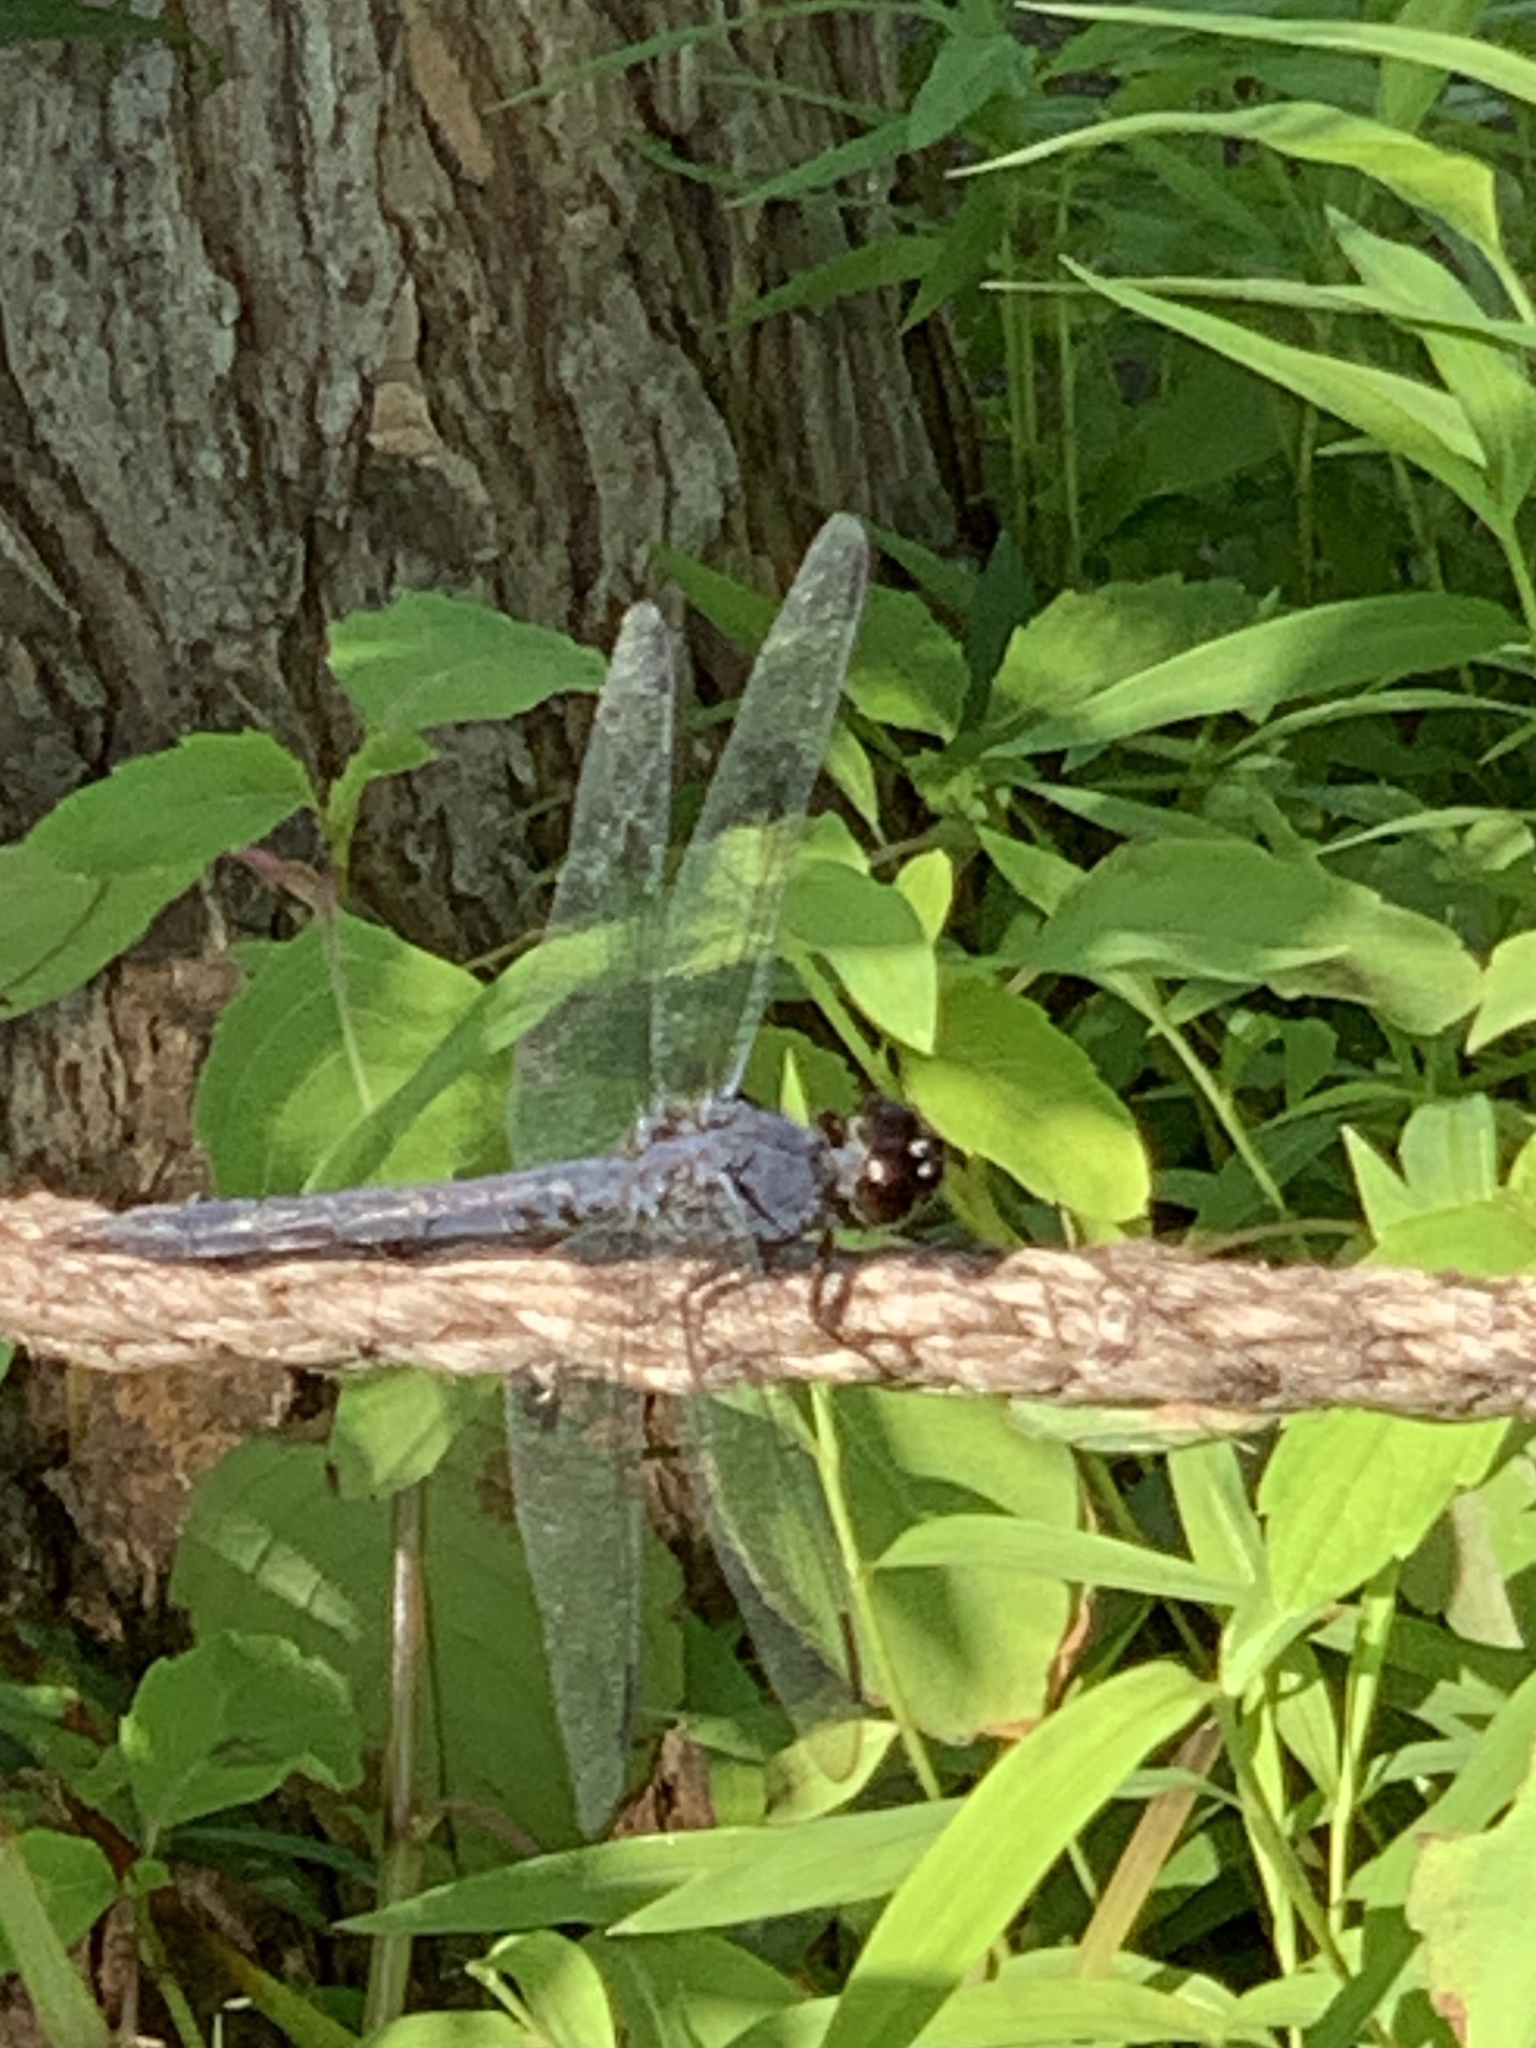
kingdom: Animalia
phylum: Arthropoda
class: Insecta
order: Odonata
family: Libellulidae
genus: Libellula
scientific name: Libellula incesta
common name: Slaty skimmer
